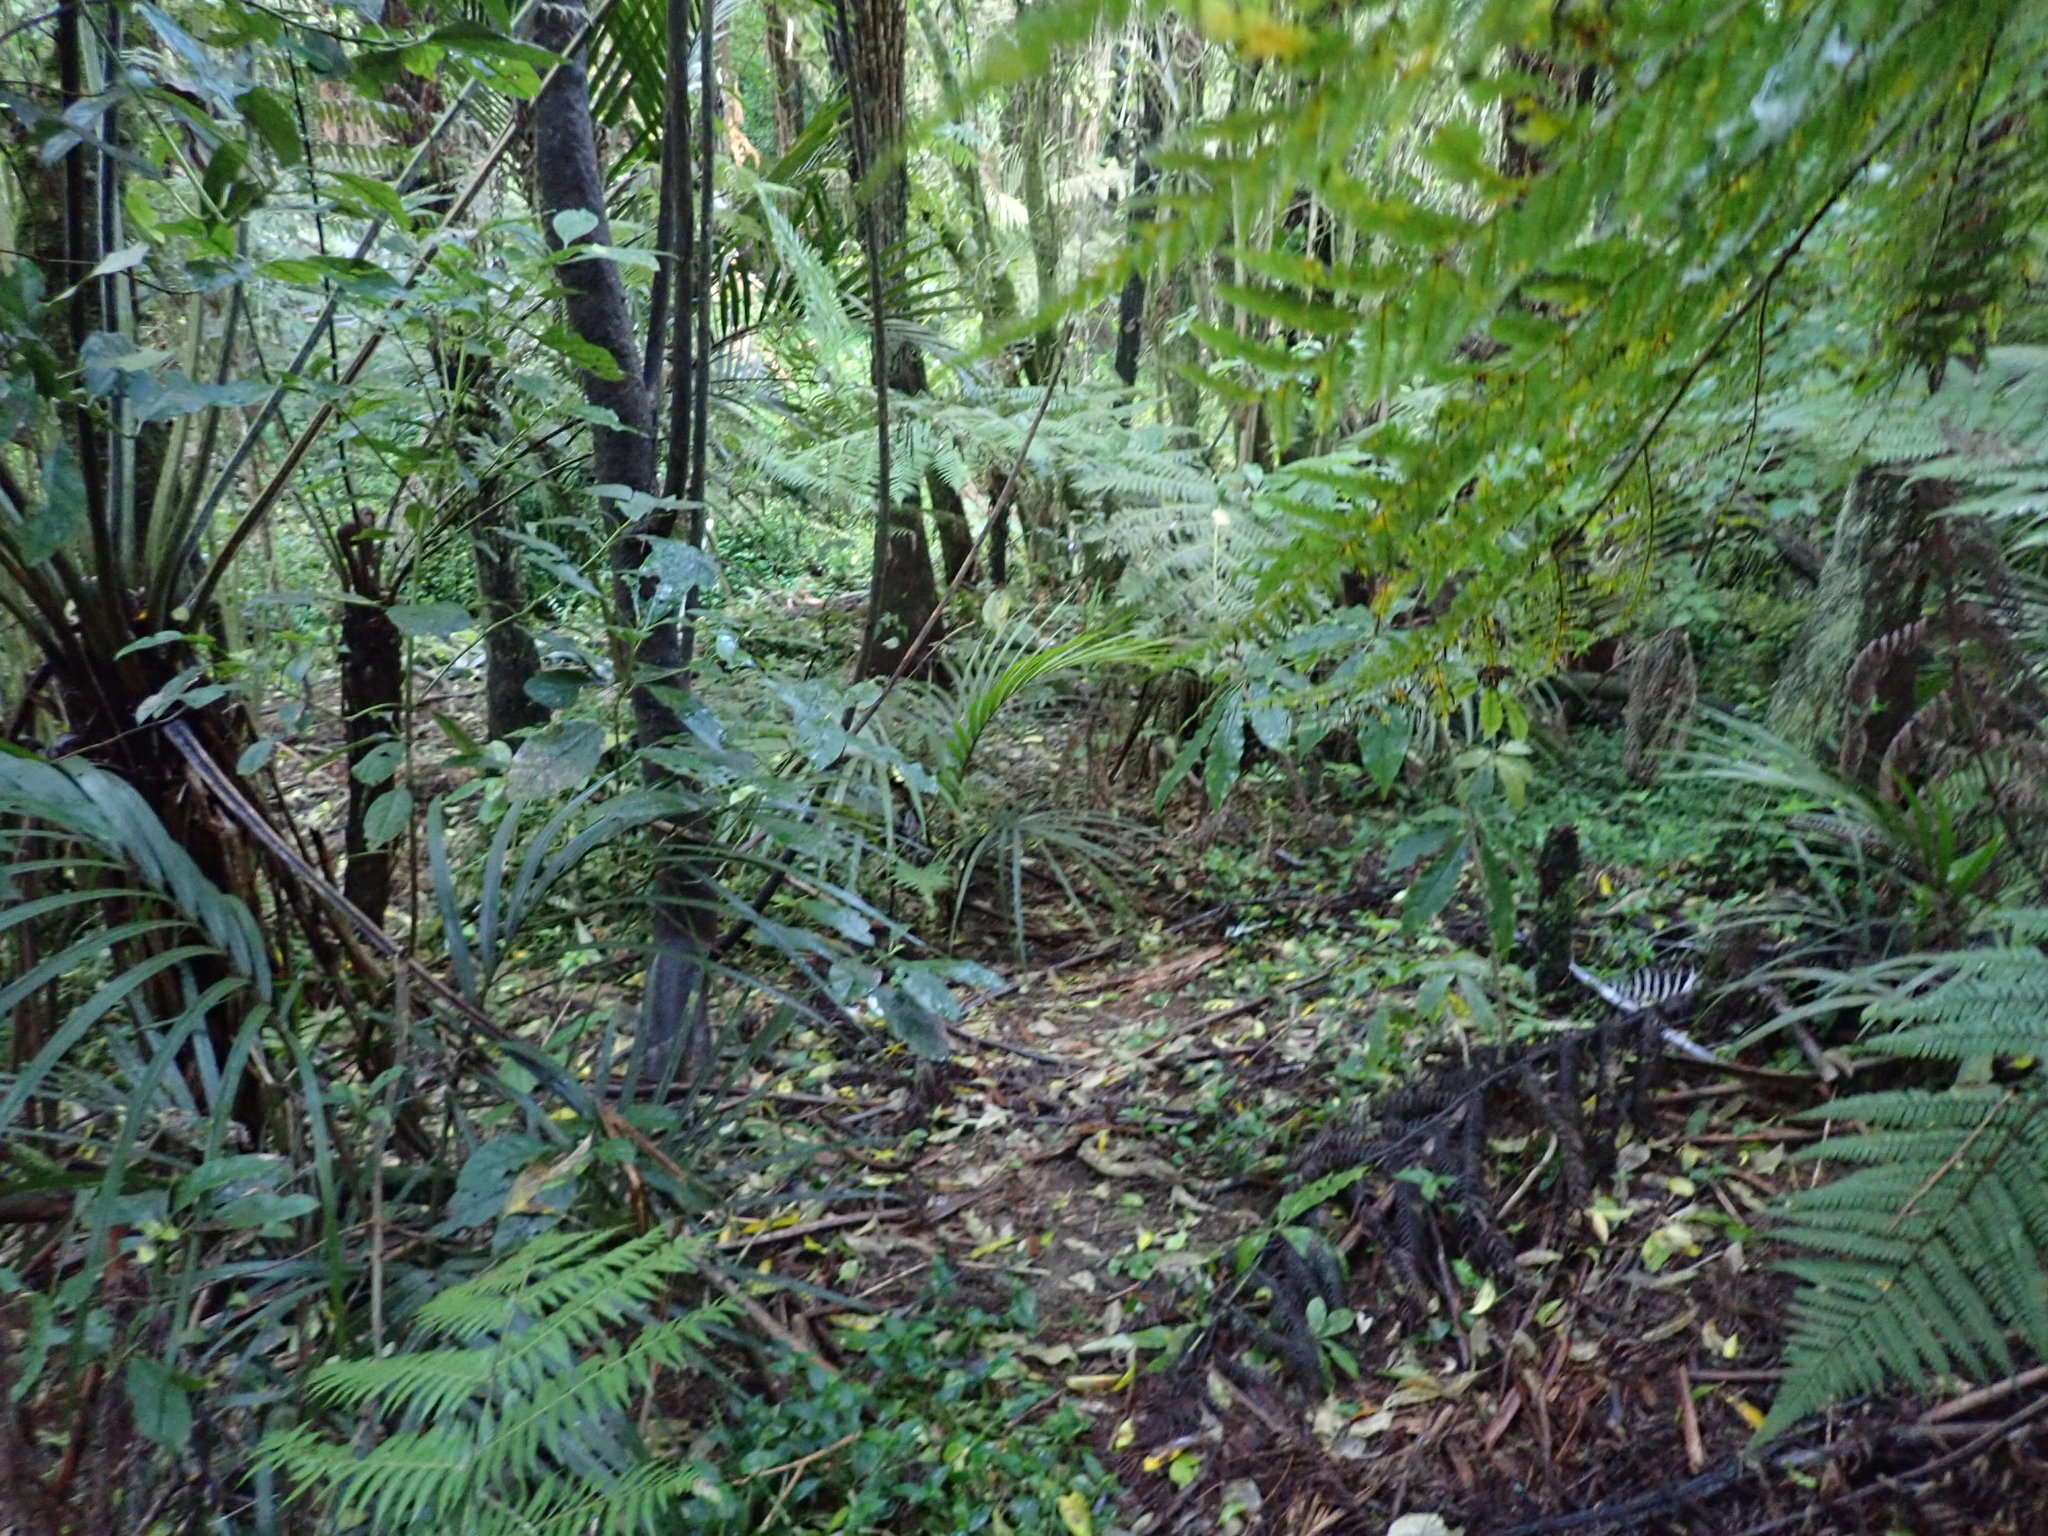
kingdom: Plantae
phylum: Tracheophyta
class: Liliopsida
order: Commelinales
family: Commelinaceae
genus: Tradescantia
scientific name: Tradescantia fluminensis
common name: Wandering-jew
